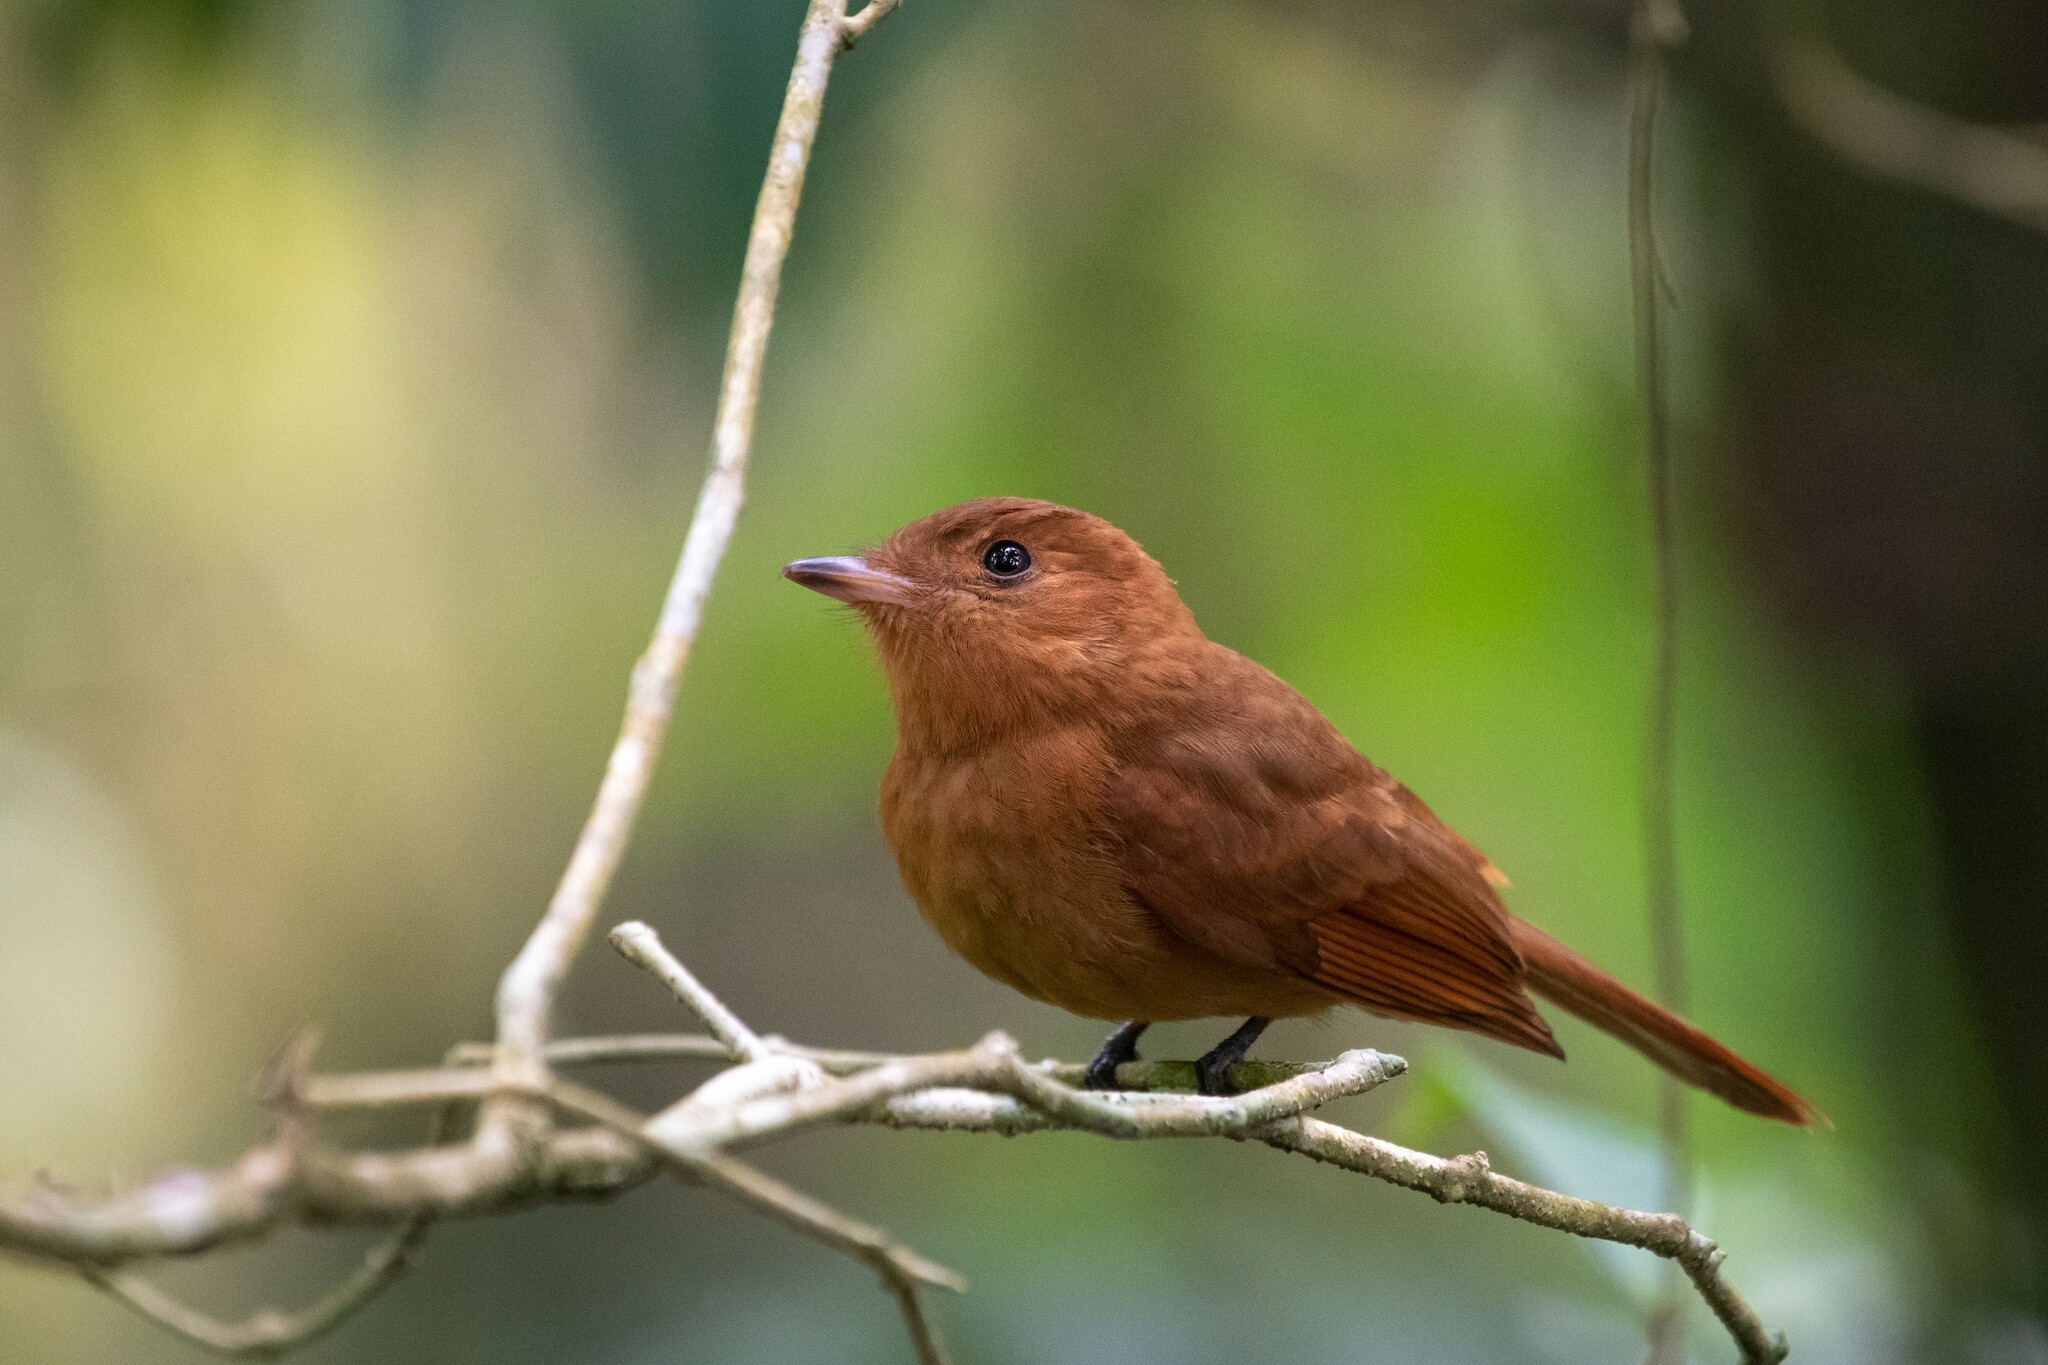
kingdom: Animalia
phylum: Chordata
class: Aves
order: Passeriformes
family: Tyrannidae
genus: Rhytipterna
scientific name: Rhytipterna holerythra
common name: Rufous mourner
